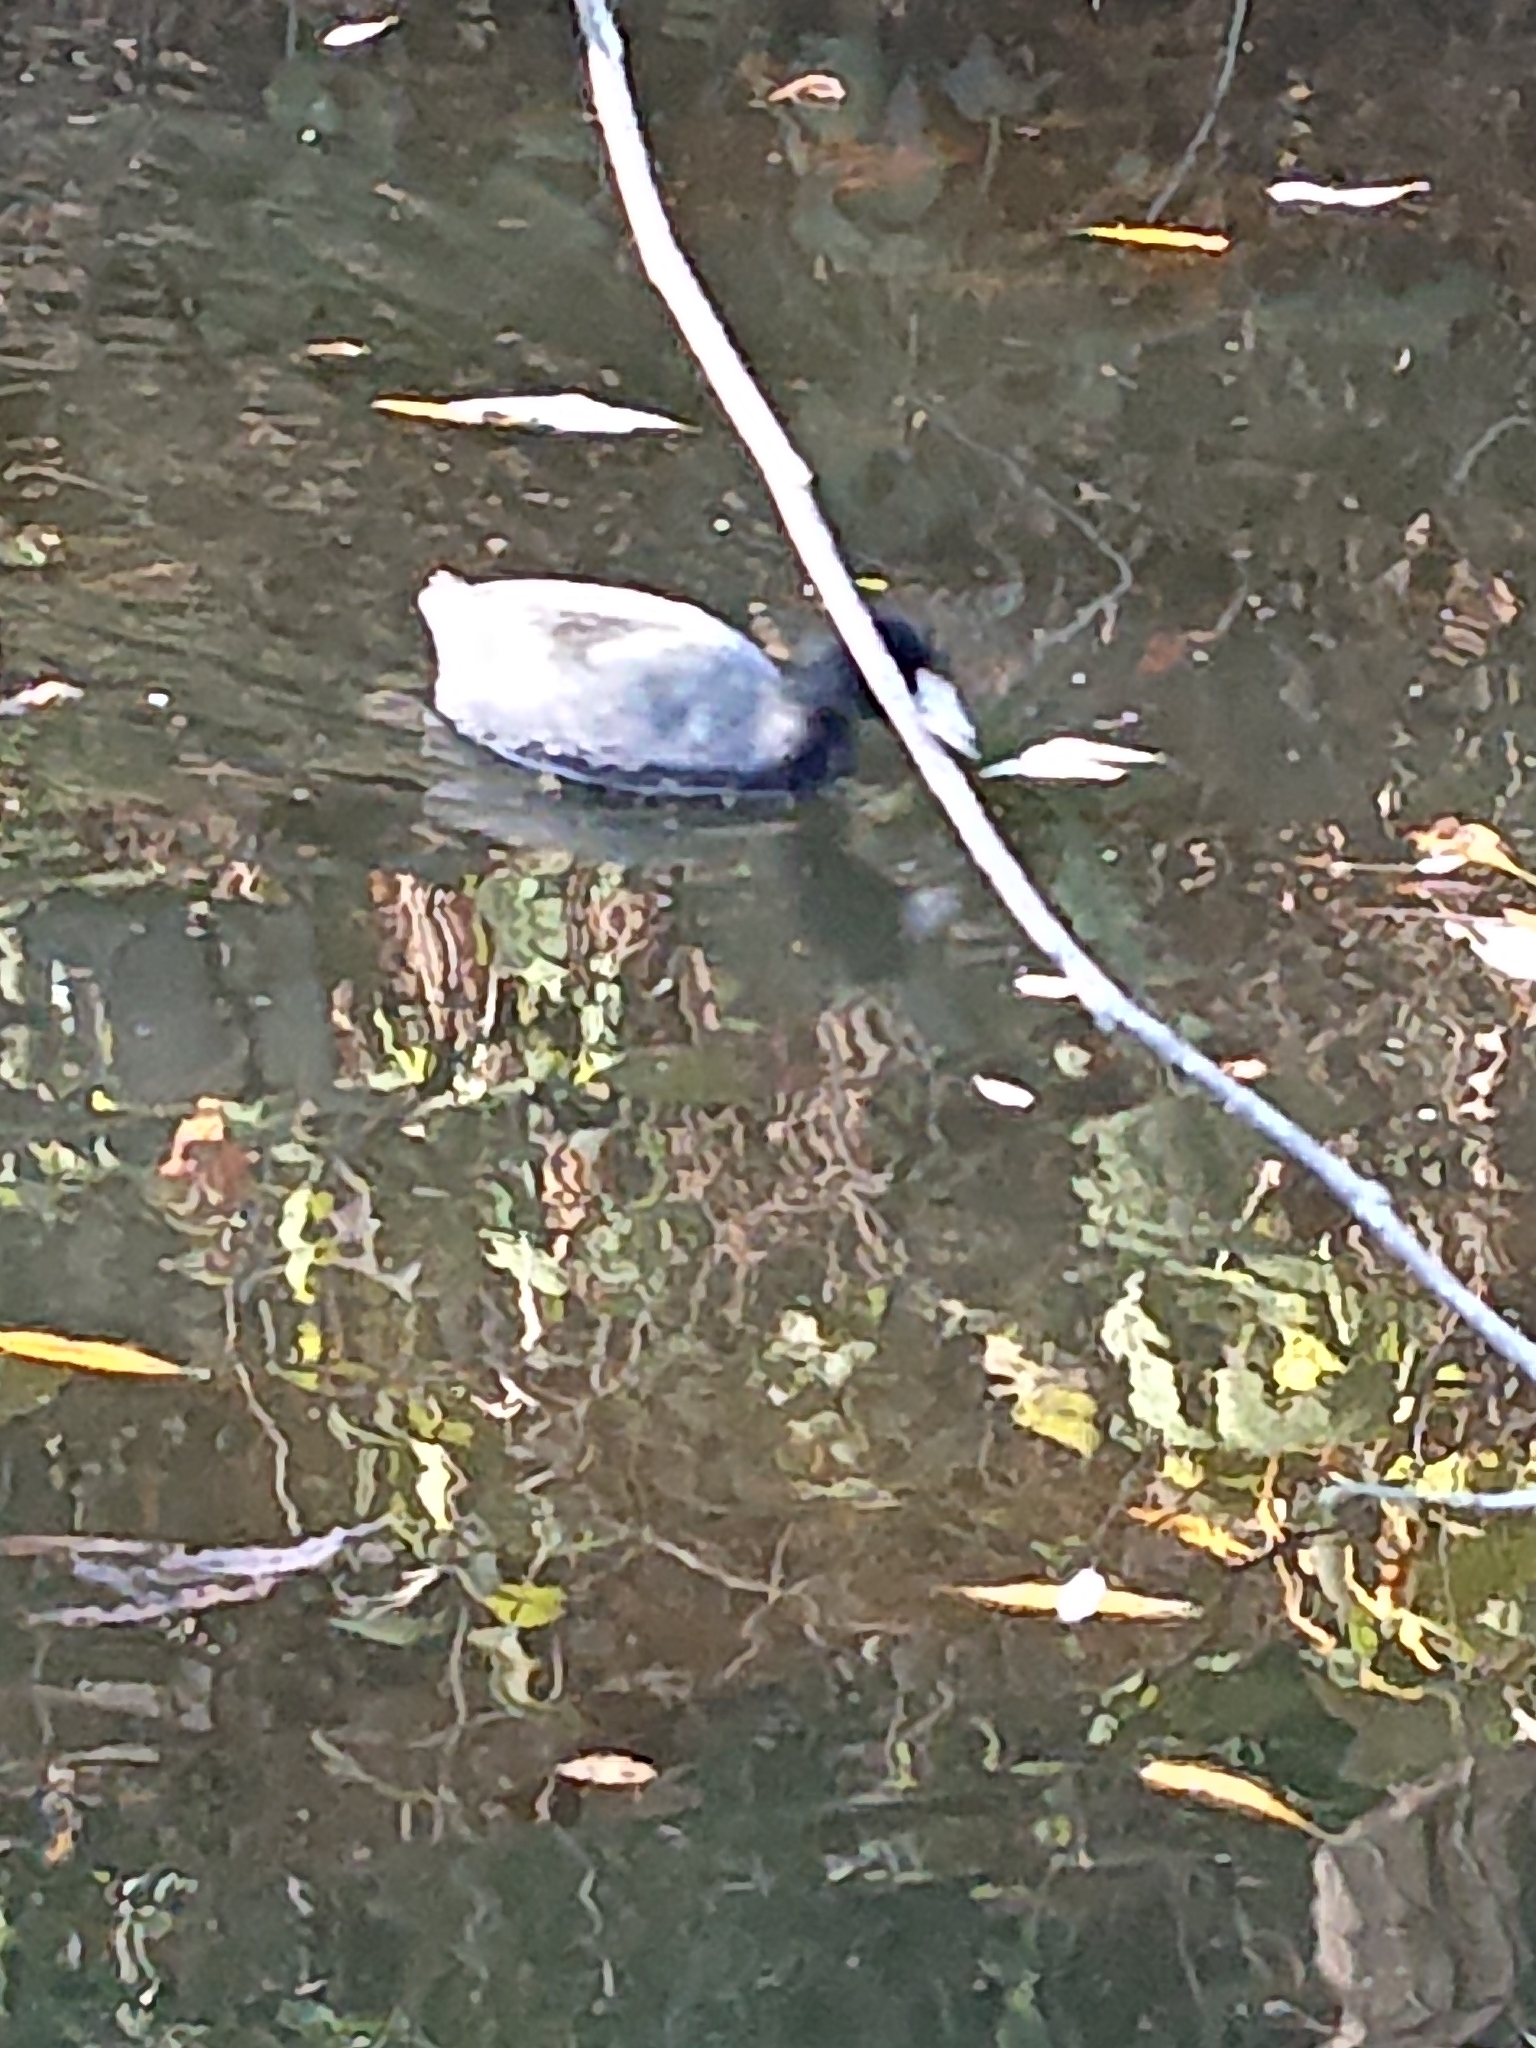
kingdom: Animalia
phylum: Chordata
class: Aves
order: Gruiformes
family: Rallidae
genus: Fulica
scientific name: Fulica americana
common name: American coot
